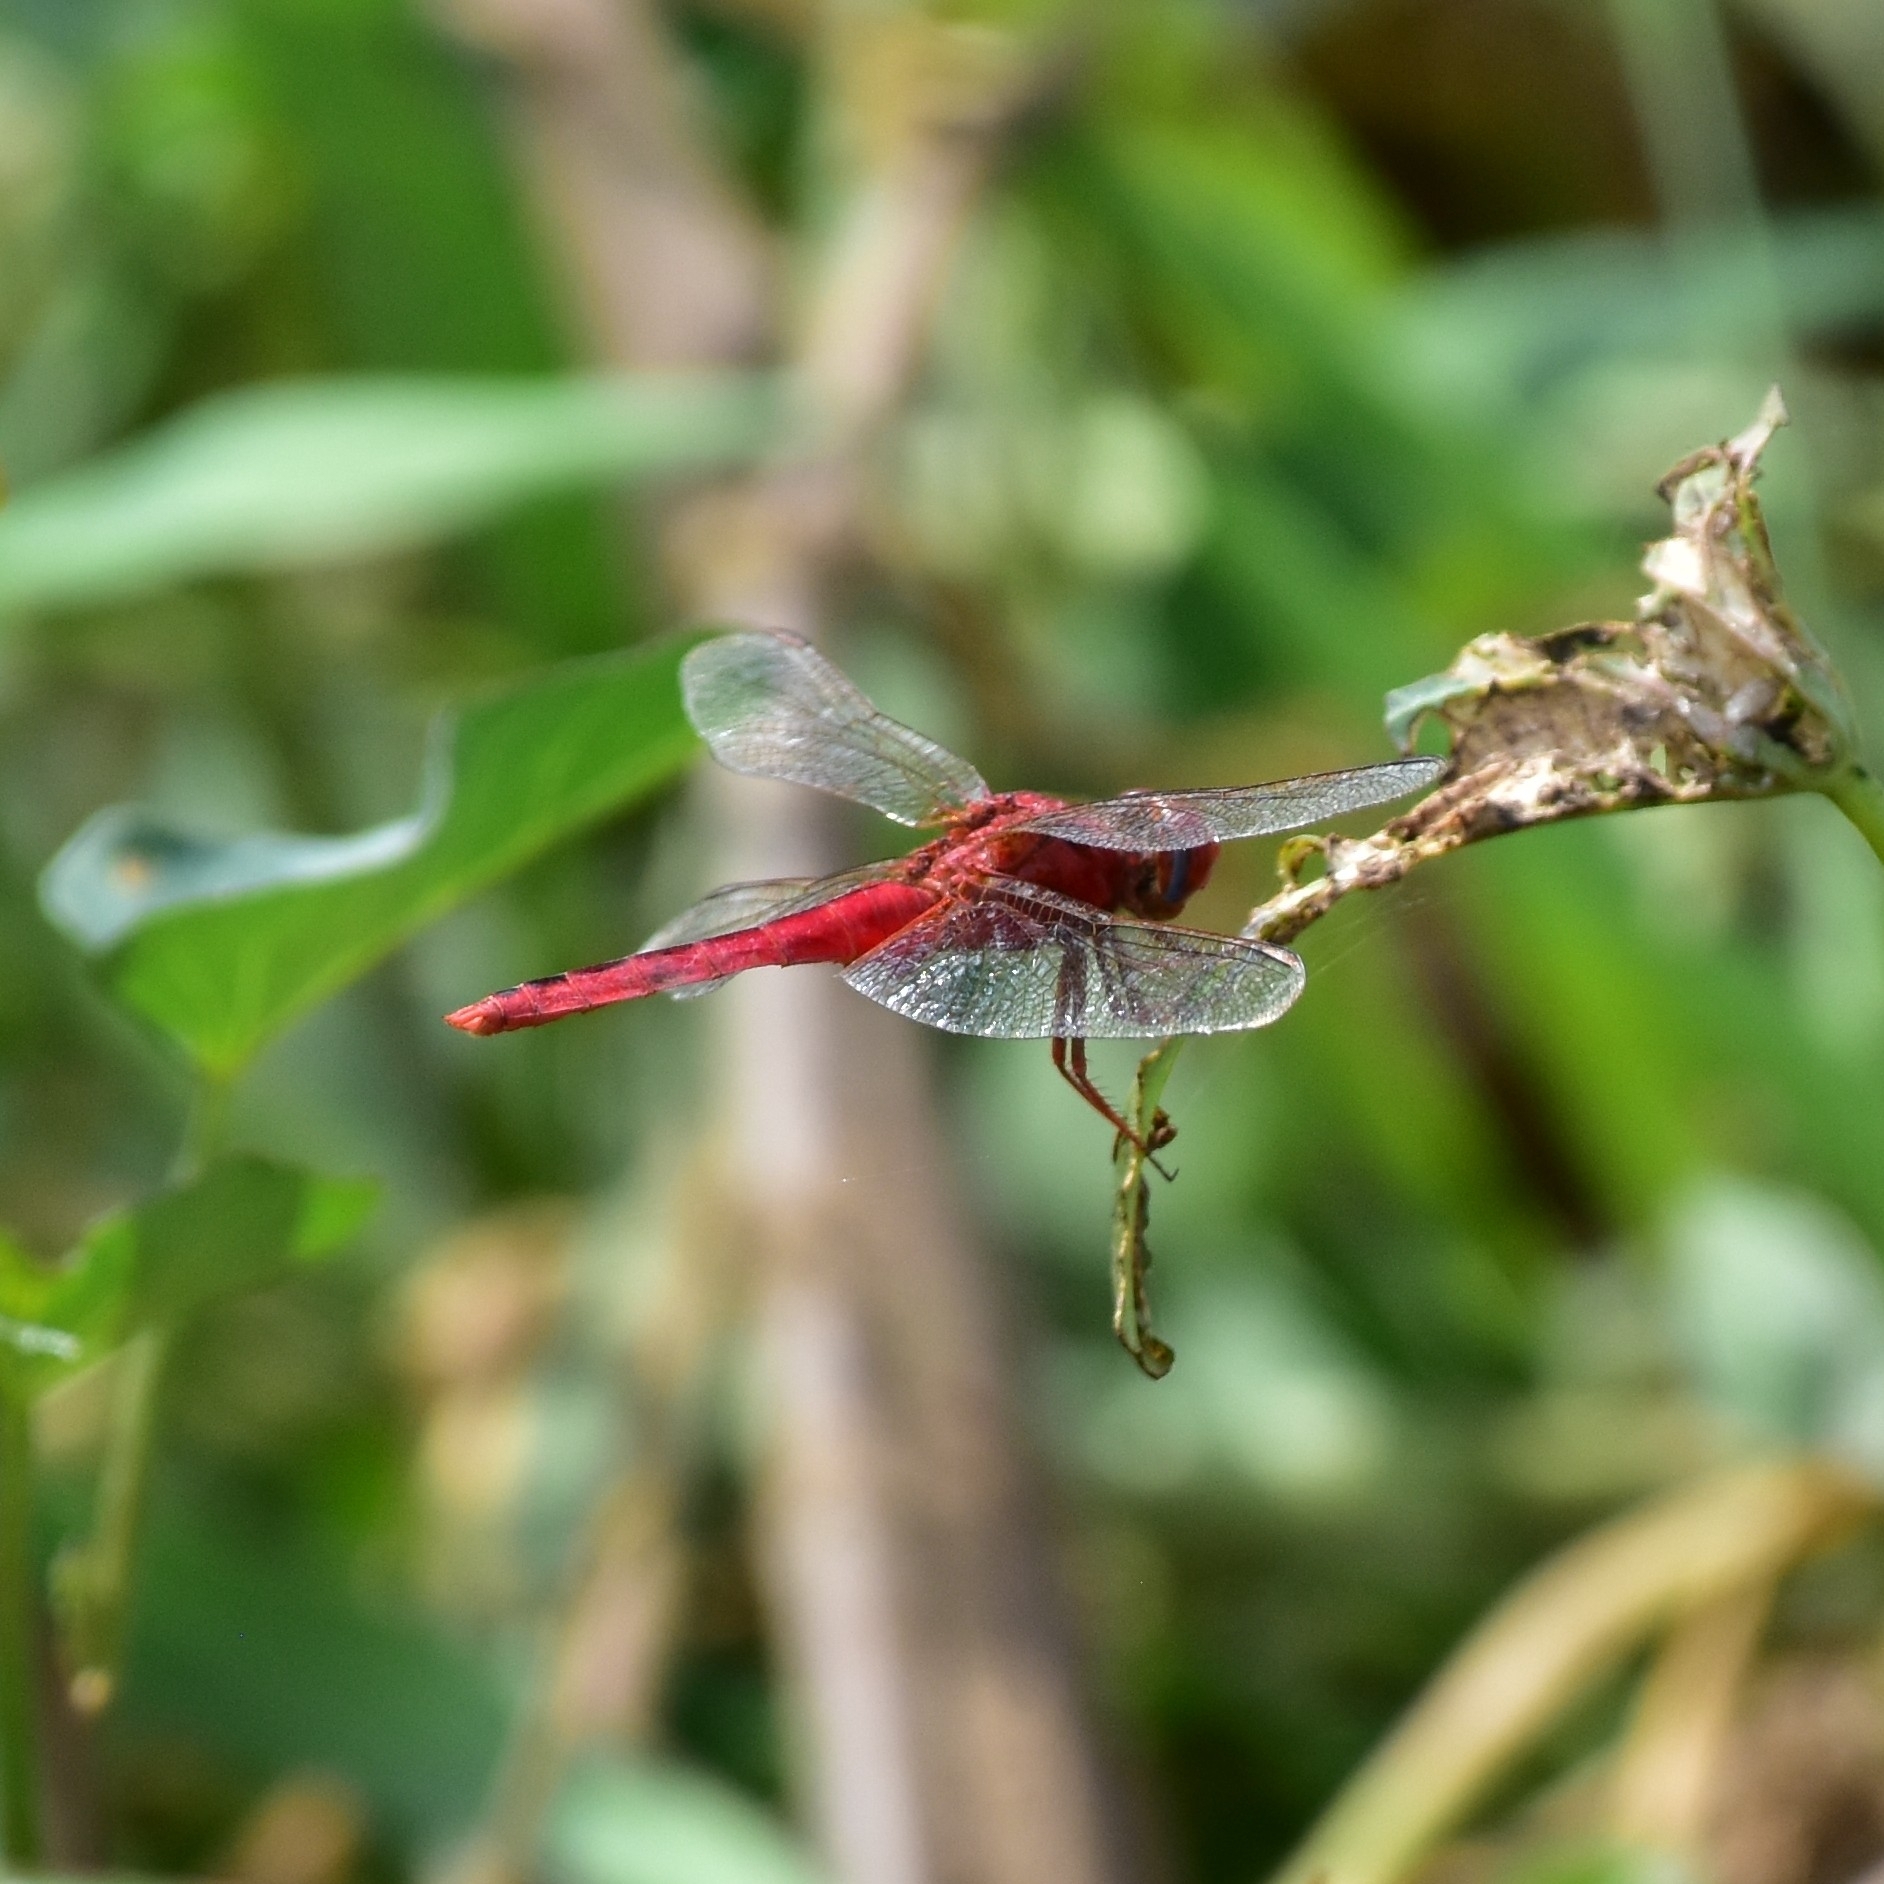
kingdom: Animalia
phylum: Arthropoda
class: Insecta
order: Odonata
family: Libellulidae
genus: Crocothemis
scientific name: Crocothemis servilia
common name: Scarlet skimmer
